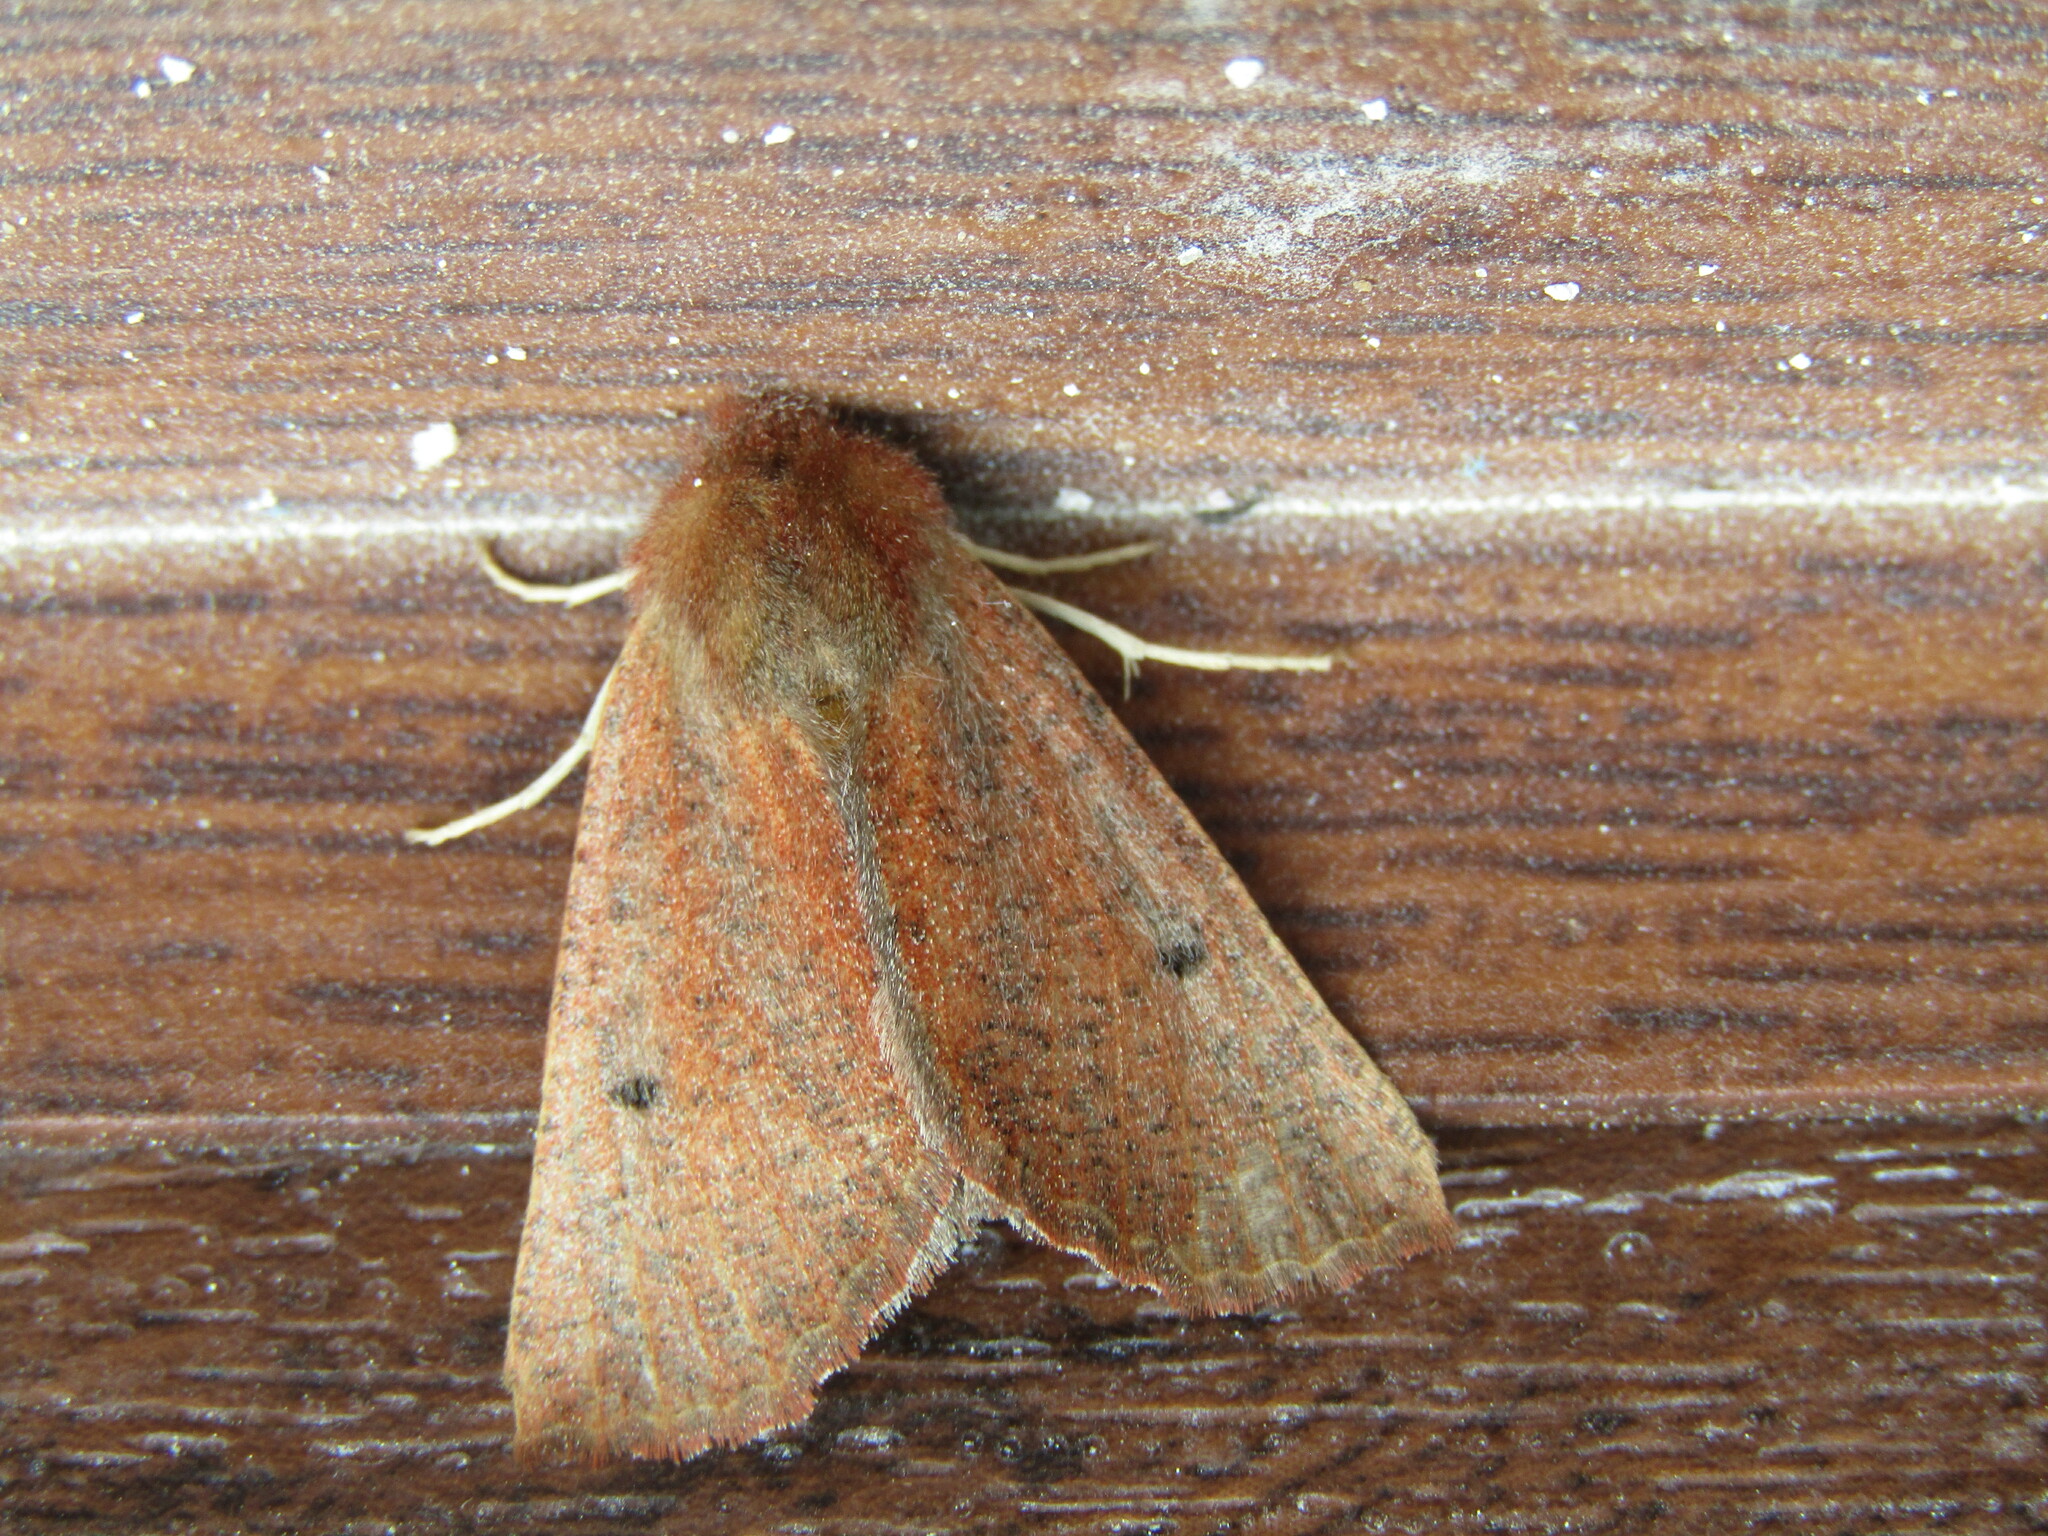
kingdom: Animalia
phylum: Arthropoda
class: Insecta
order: Lepidoptera
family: Geometridae
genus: Dasycorsa
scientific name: Dasycorsa modesta
